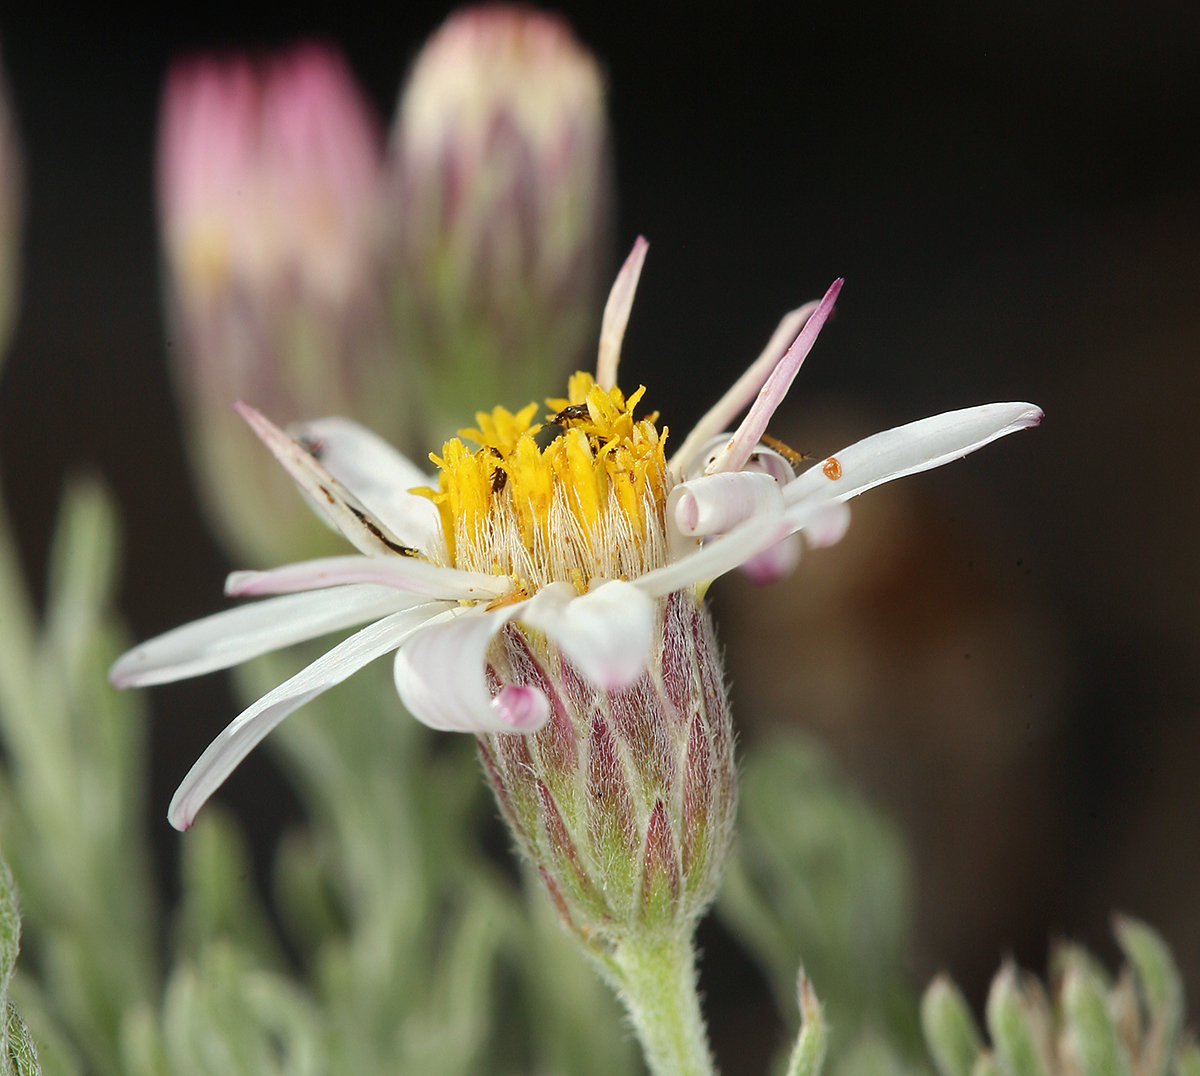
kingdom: Plantae
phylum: Tracheophyta
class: Magnoliopsida
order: Asterales
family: Asteraceae
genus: Chaetopappa
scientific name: Chaetopappa ericoides
